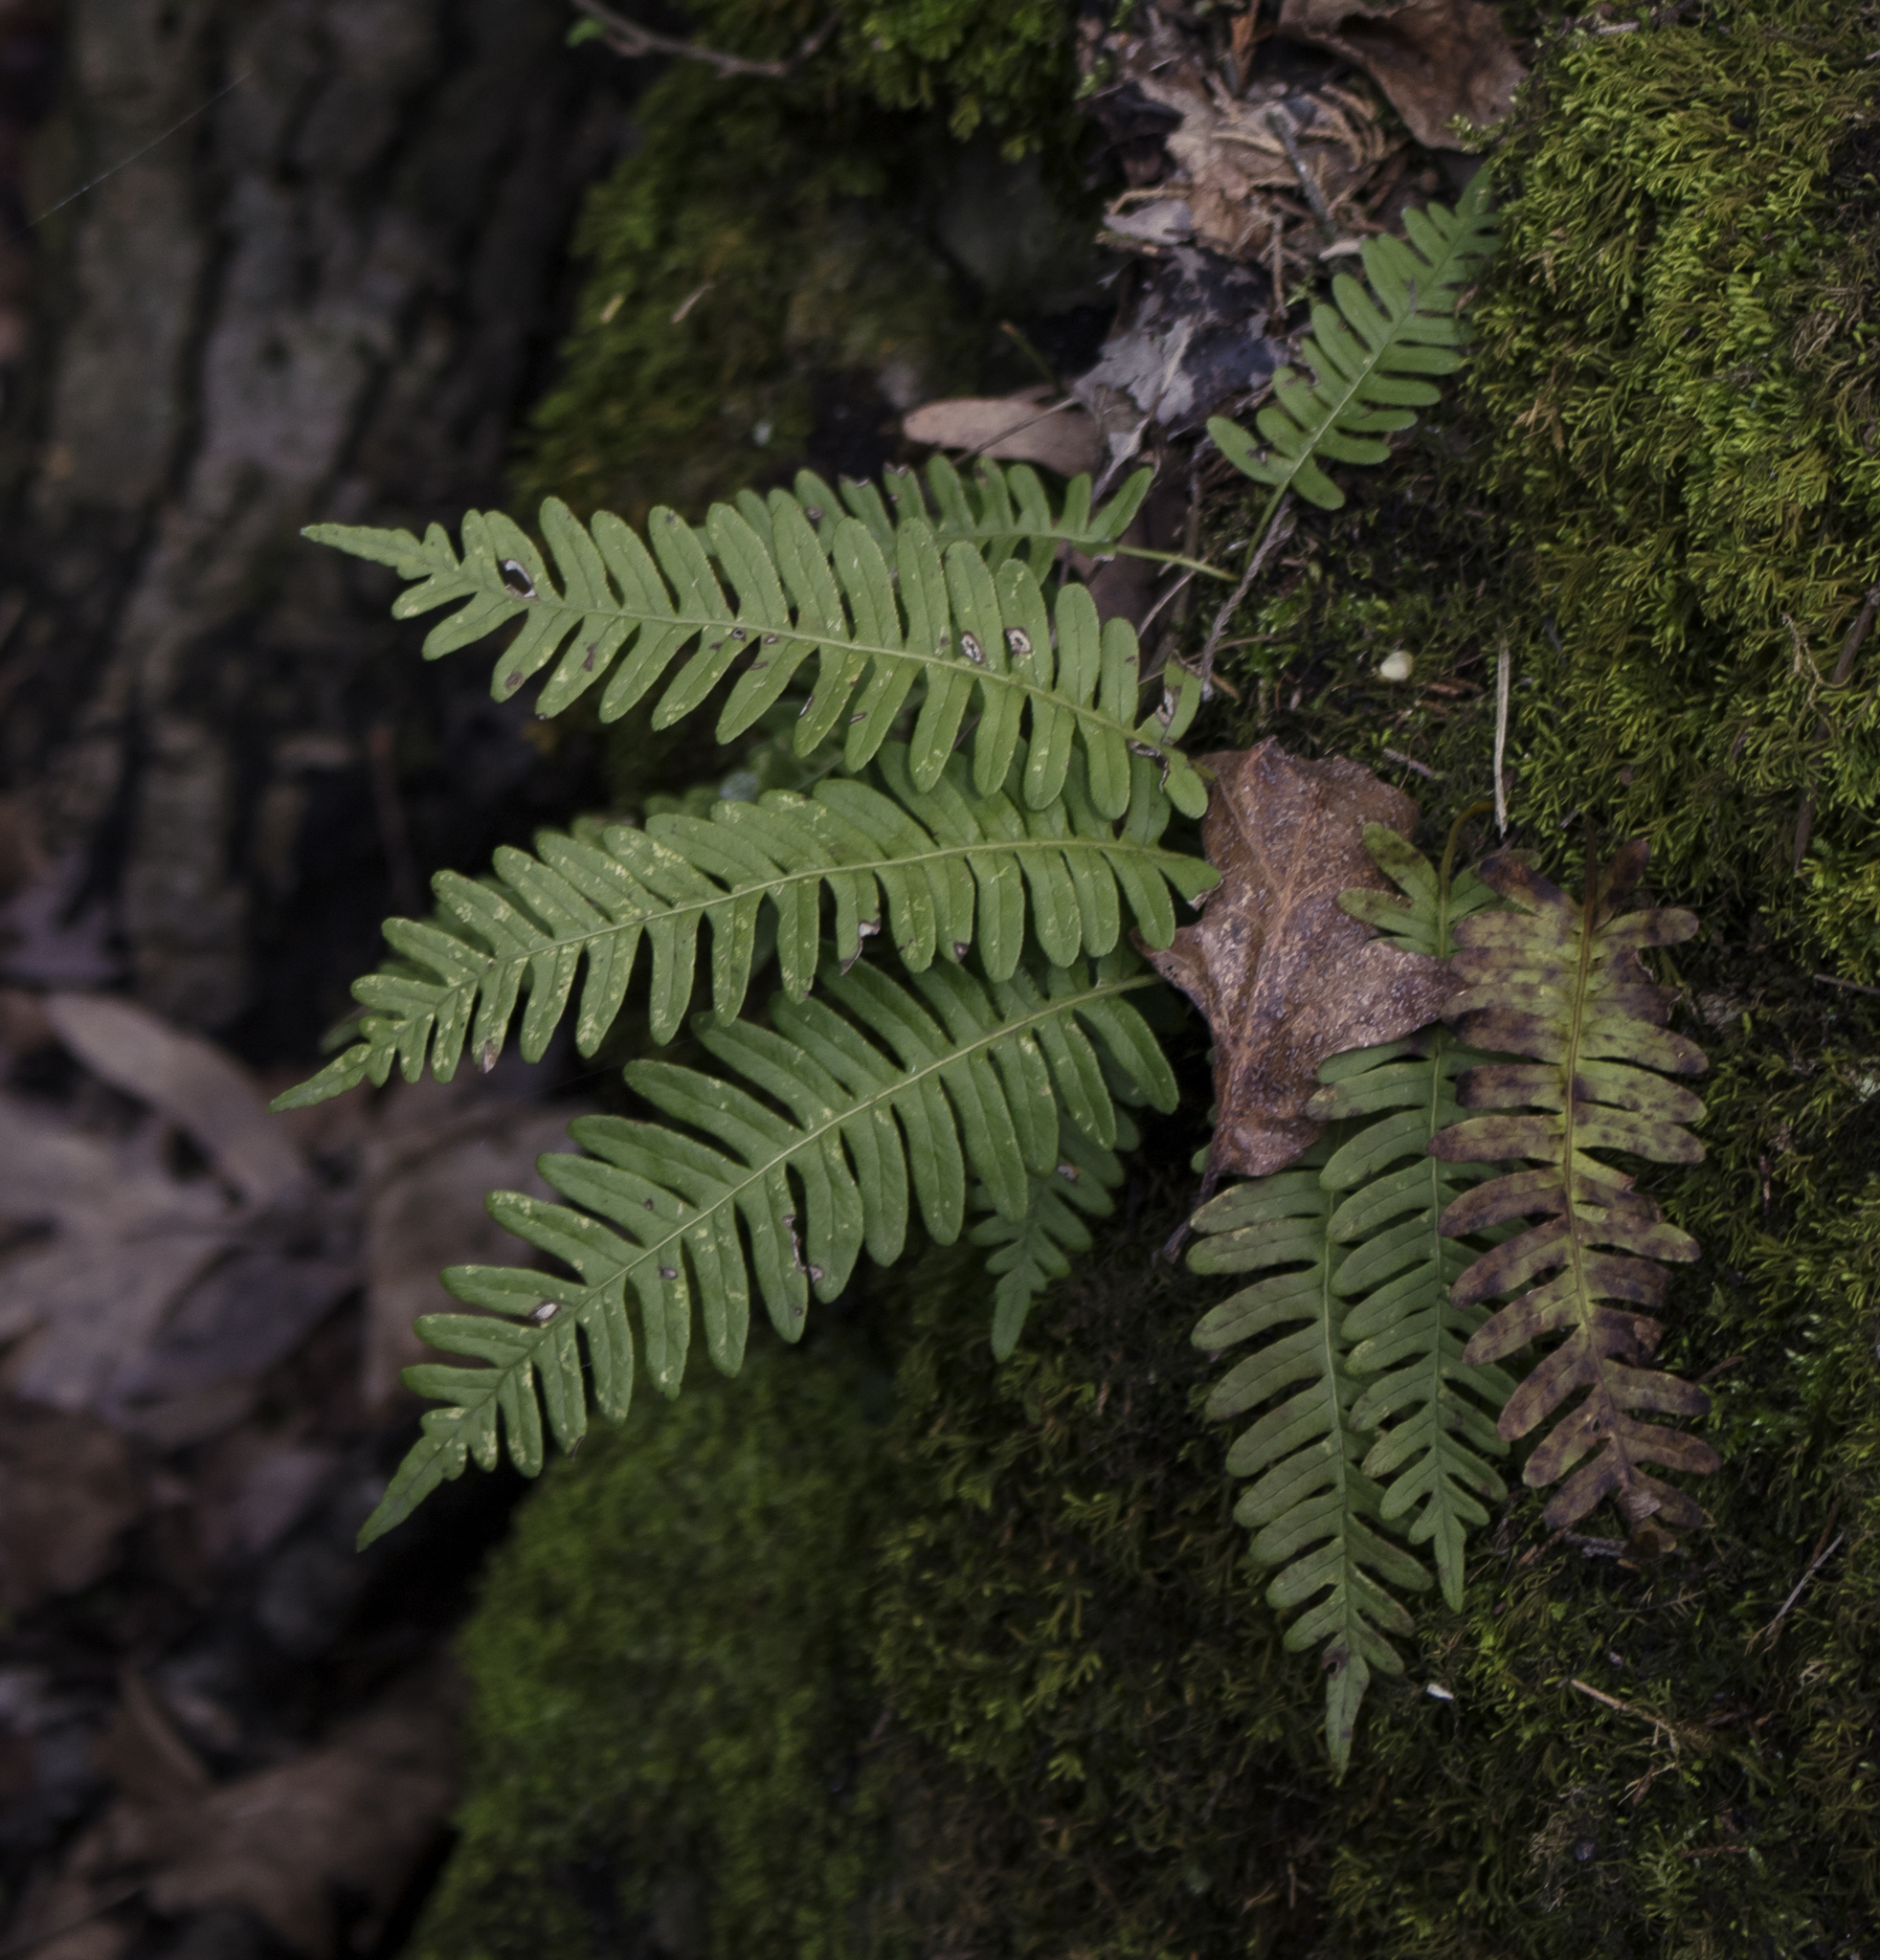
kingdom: Plantae
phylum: Tracheophyta
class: Polypodiopsida
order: Polypodiales
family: Polypodiaceae
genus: Polypodium
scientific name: Polypodium virginianum
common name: American wall fern
